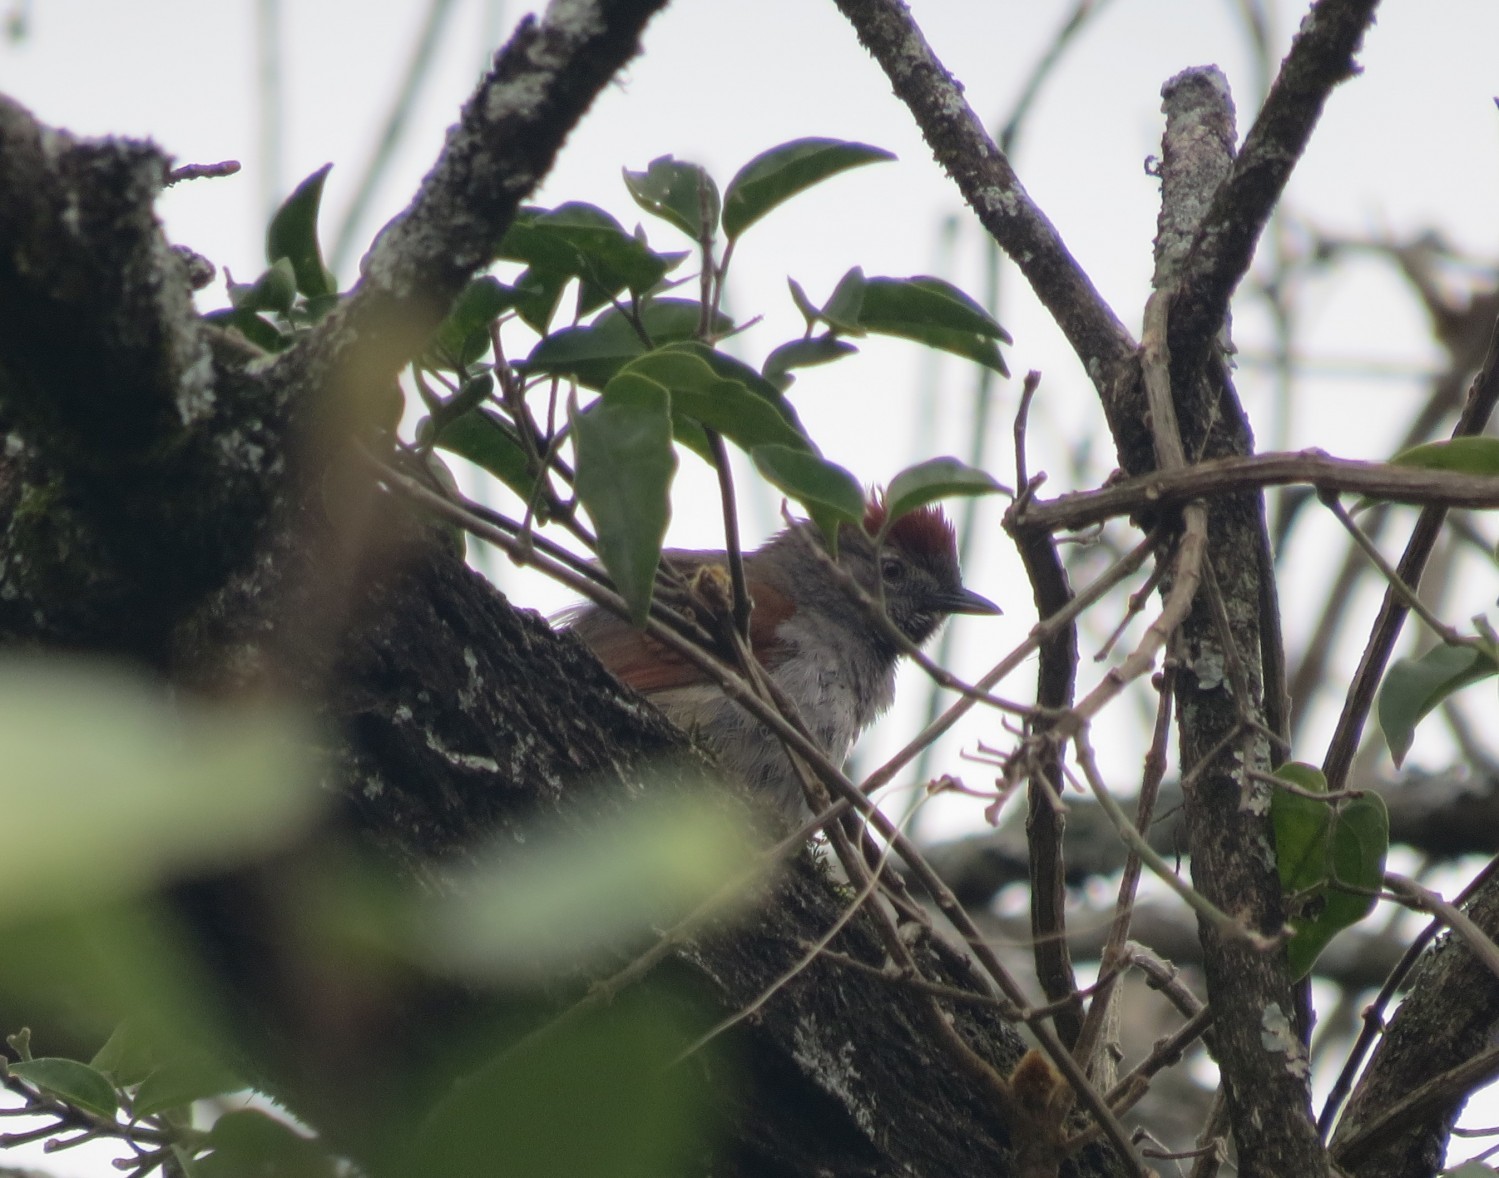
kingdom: Animalia
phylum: Chordata
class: Aves
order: Passeriformes
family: Furnariidae
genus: Synallaxis
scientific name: Synallaxis frontalis
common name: Sooty-fronted spinetail
